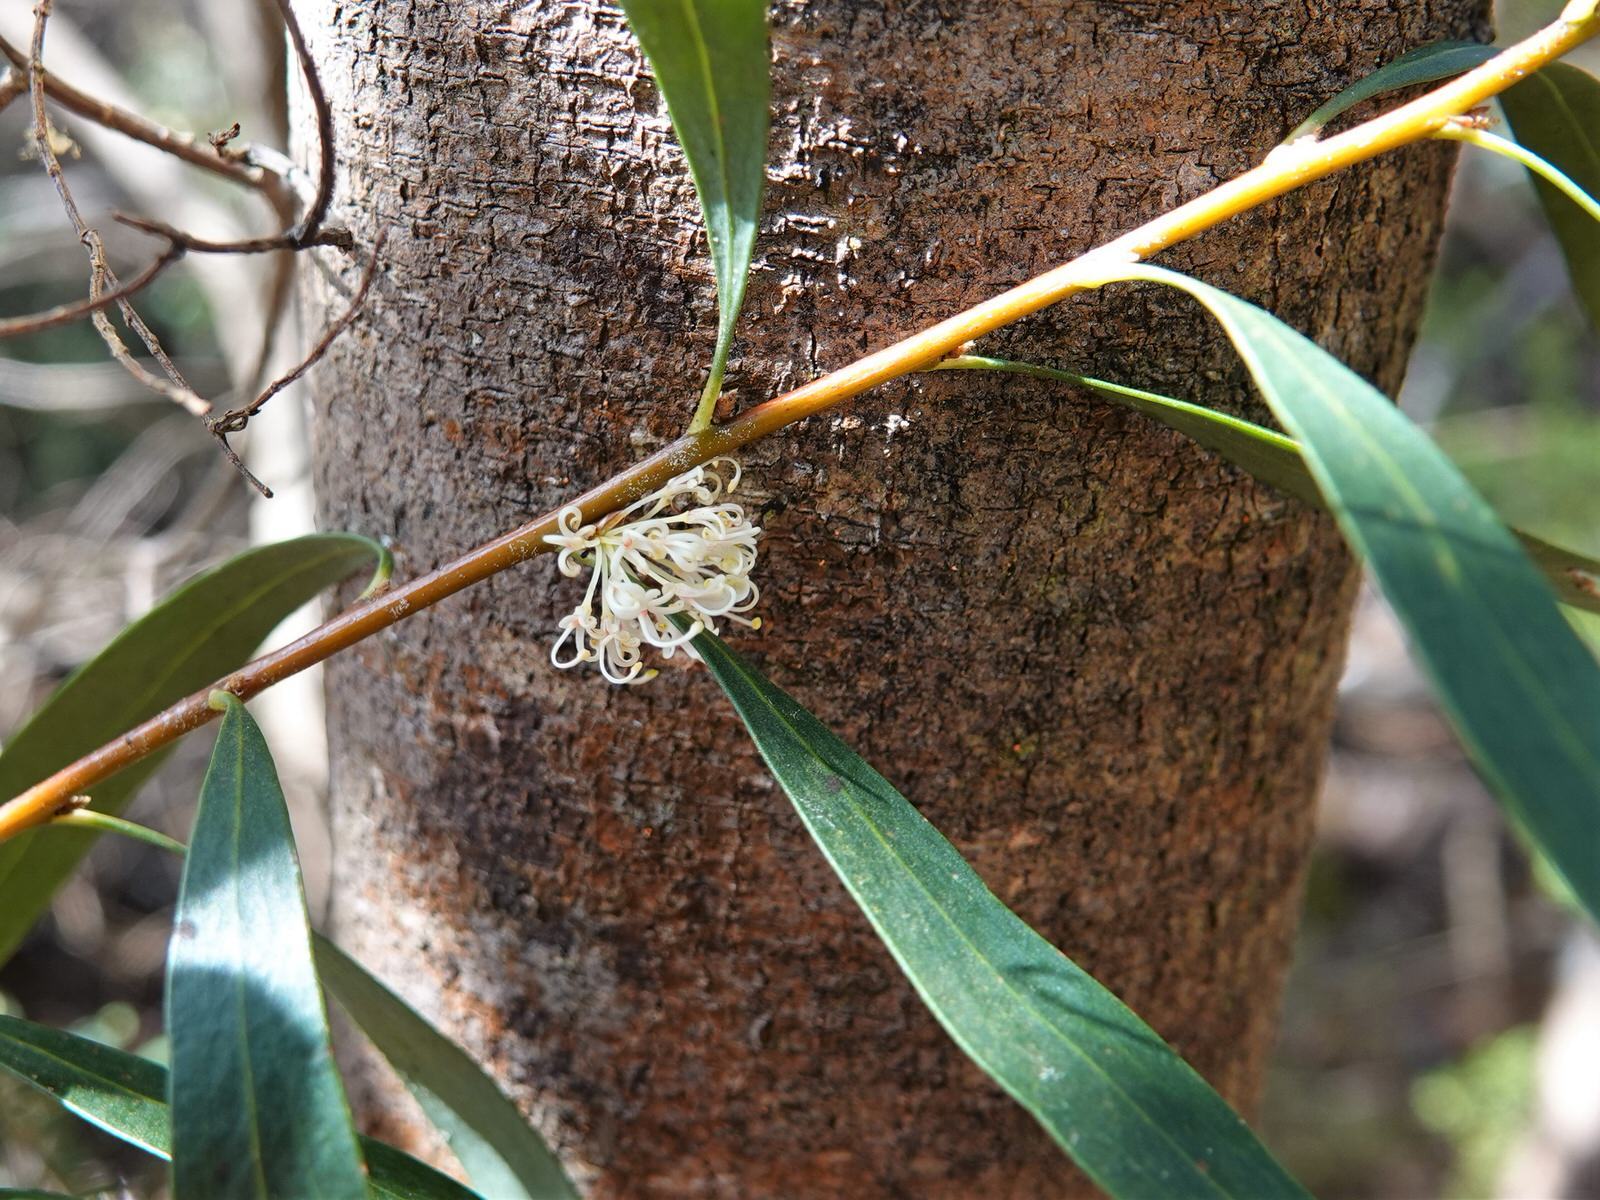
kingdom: Plantae
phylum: Tracheophyta
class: Magnoliopsida
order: Proteales
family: Proteaceae
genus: Hakea
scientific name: Hakea salicifolia
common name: Willow hakea
